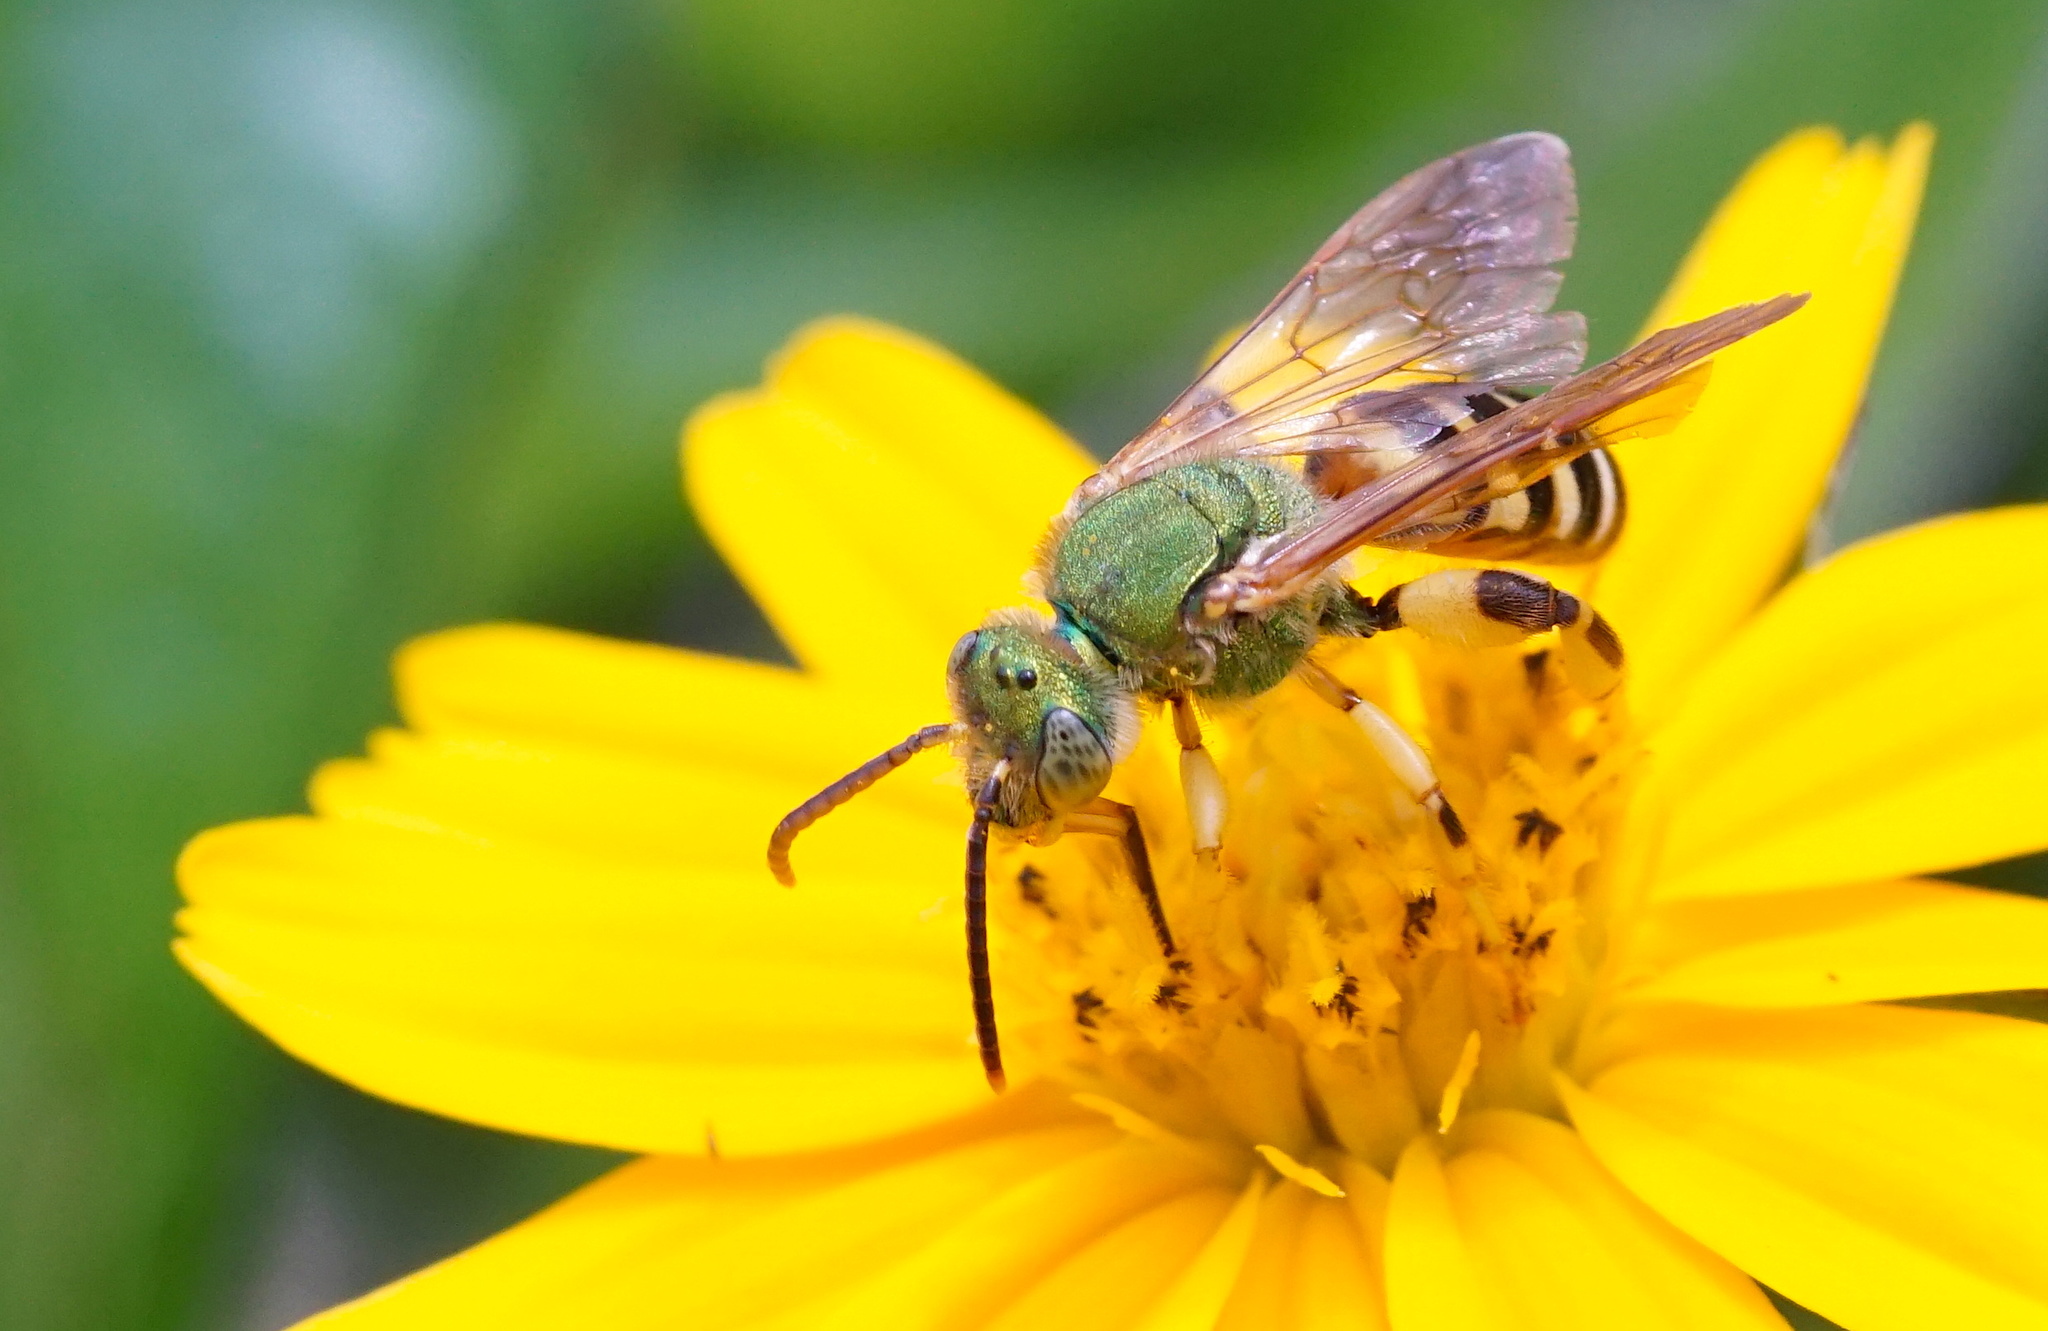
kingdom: Animalia
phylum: Arthropoda
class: Insecta
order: Hymenoptera
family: Halictidae
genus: Agapostemon
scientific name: Agapostemon splendens
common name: Brown-winged striped sweat bee
